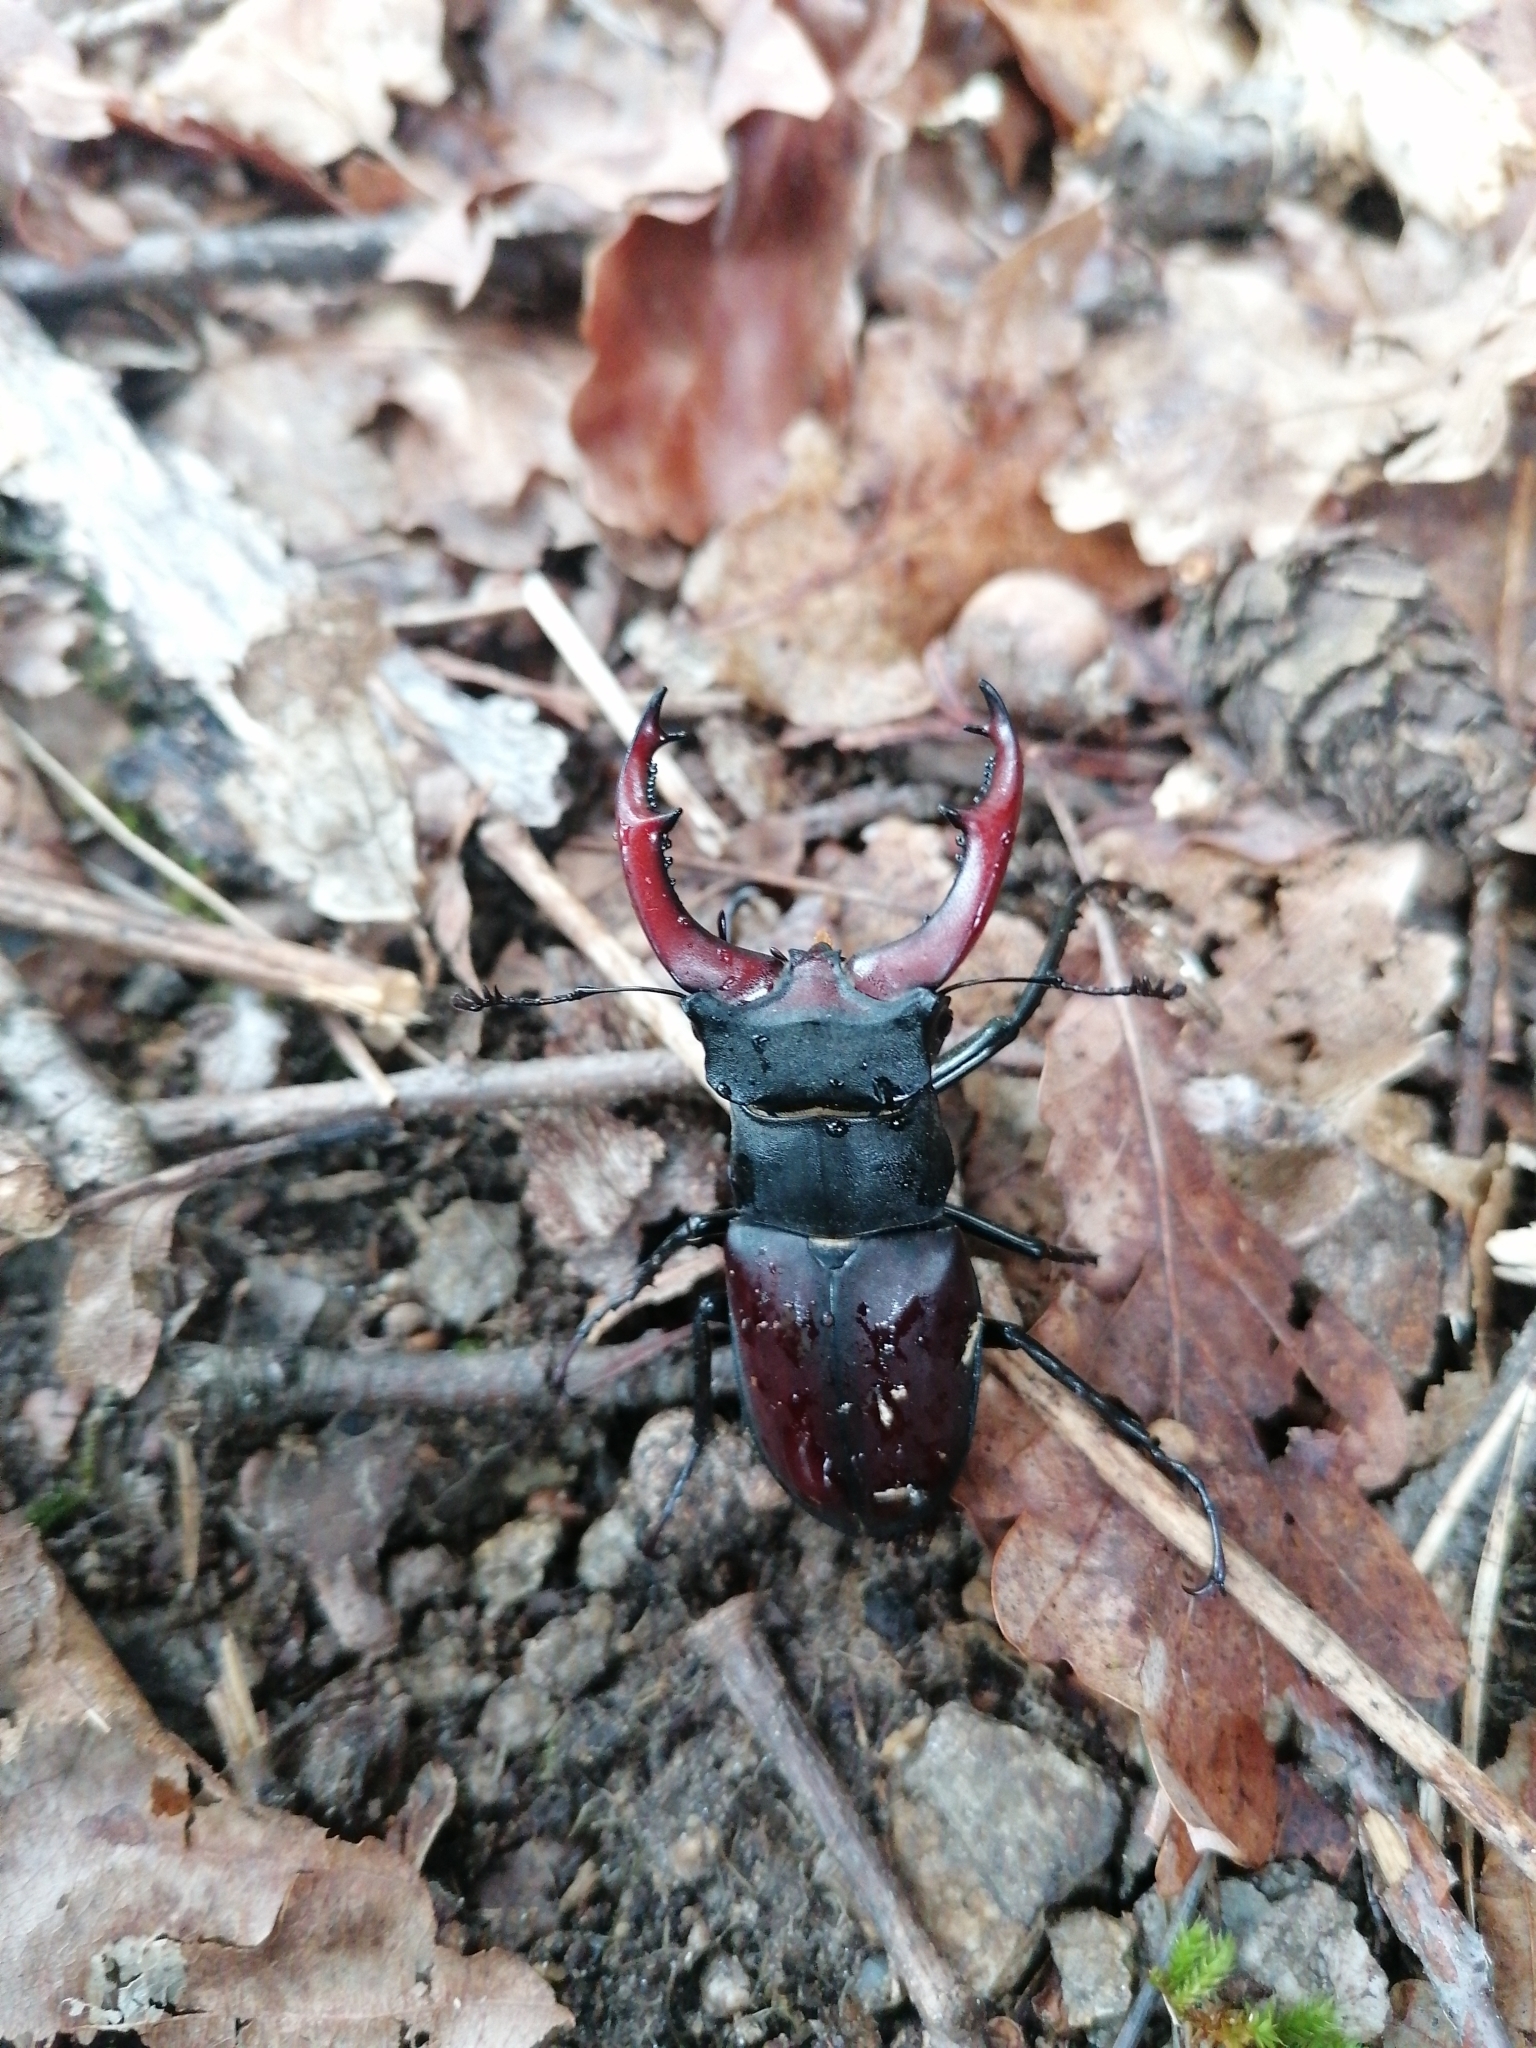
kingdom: Animalia
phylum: Arthropoda
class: Insecta
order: Coleoptera
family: Lucanidae
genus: Lucanus
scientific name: Lucanus cervus
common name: Stag beetle
